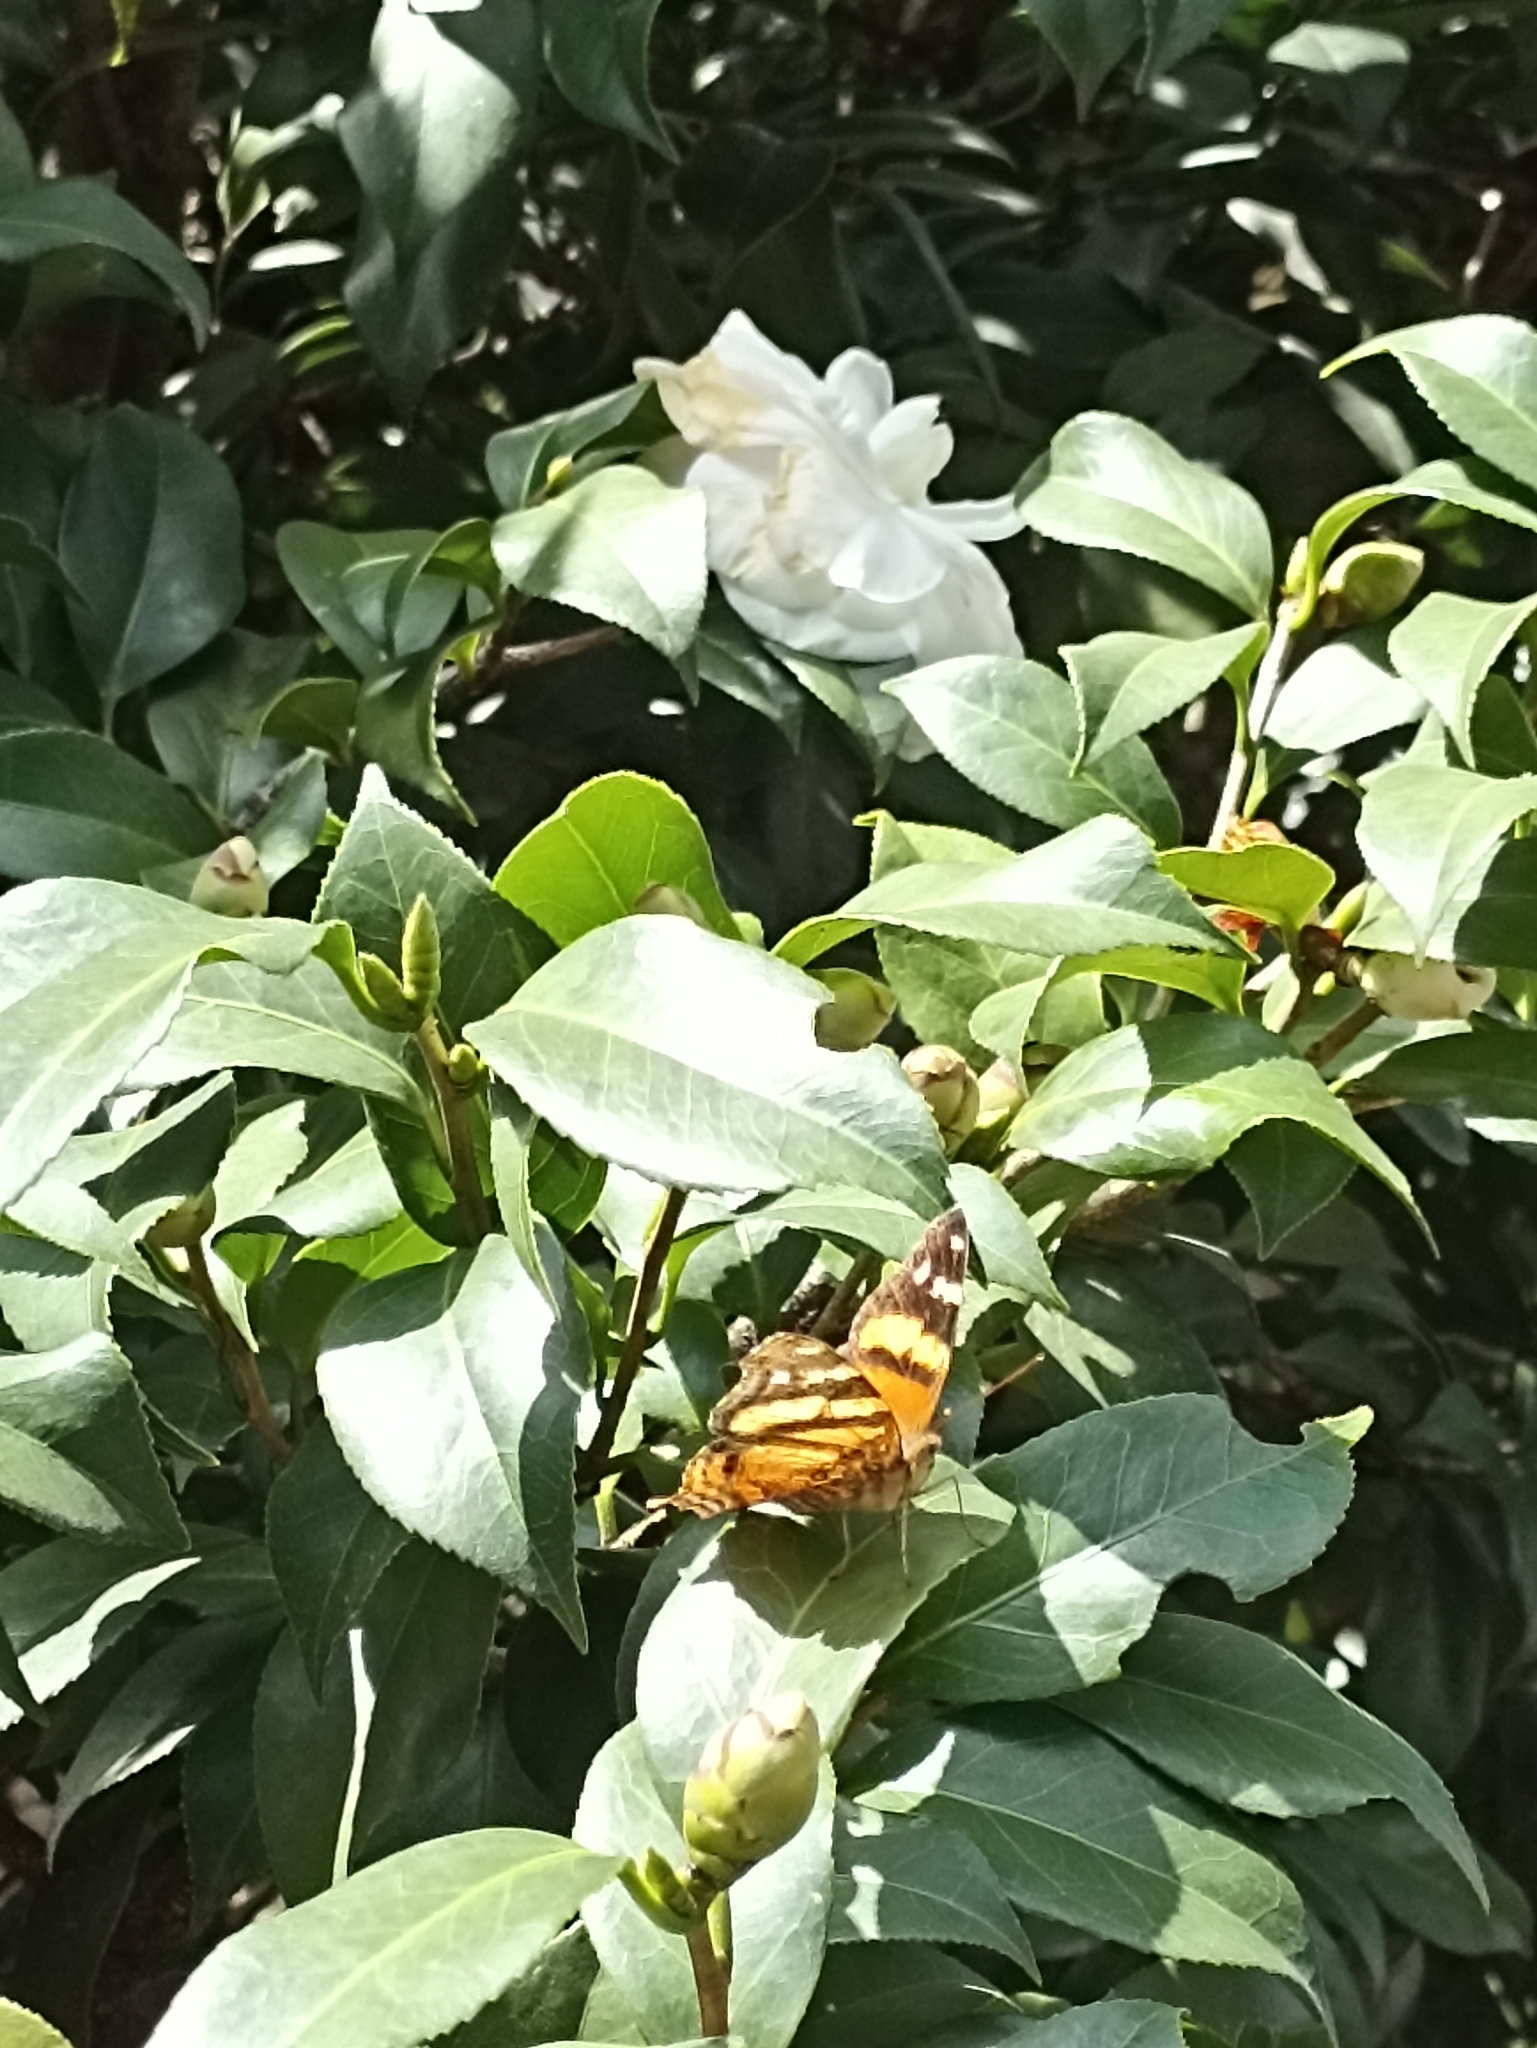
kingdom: Animalia
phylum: Arthropoda
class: Insecta
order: Lepidoptera
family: Nymphalidae
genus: Hypanartia
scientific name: Hypanartia bella
